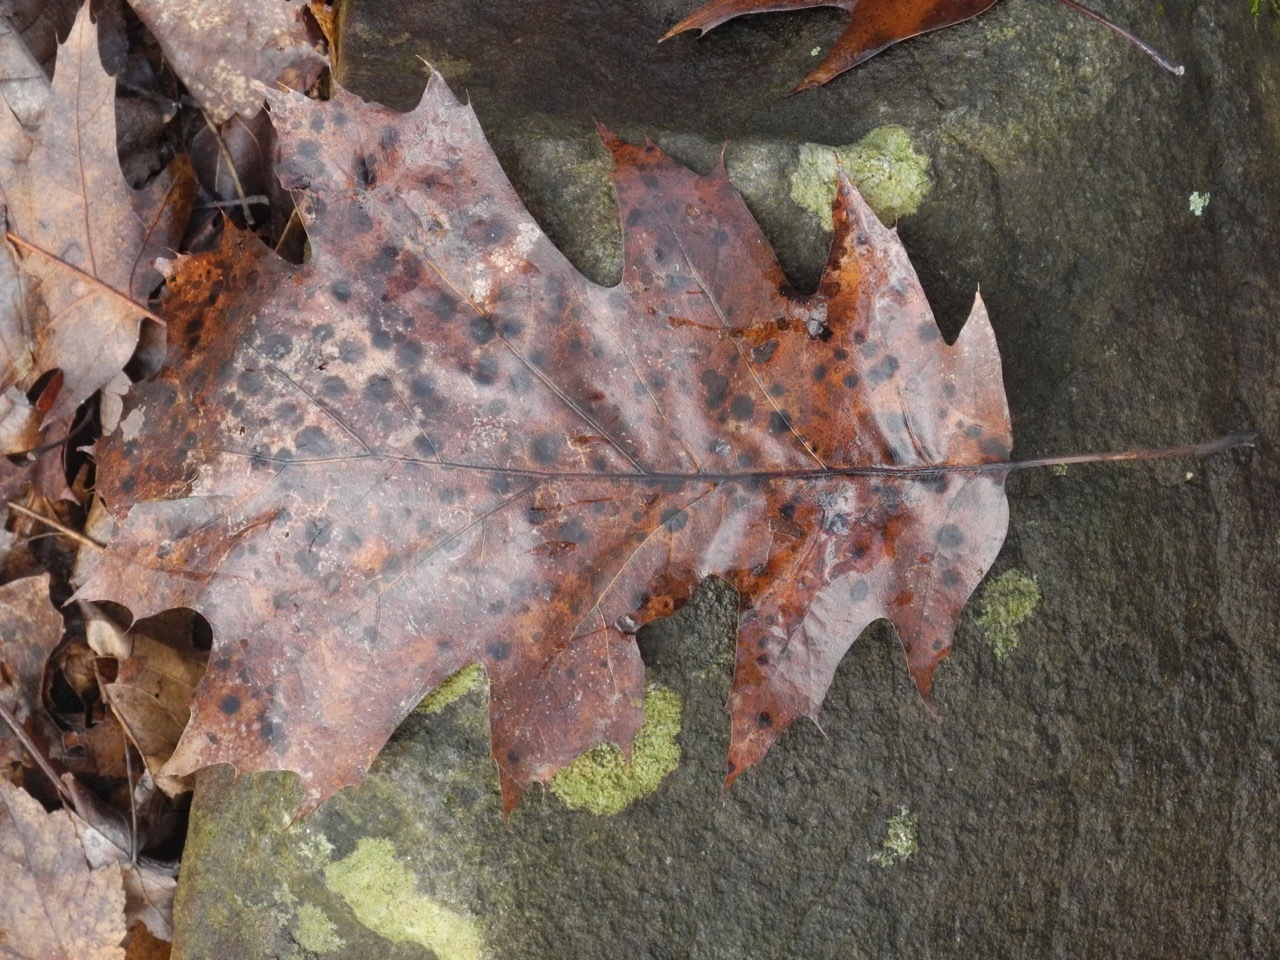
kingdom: Plantae
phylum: Tracheophyta
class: Magnoliopsida
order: Fagales
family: Fagaceae
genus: Quercus
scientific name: Quercus rubra
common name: Red oak
